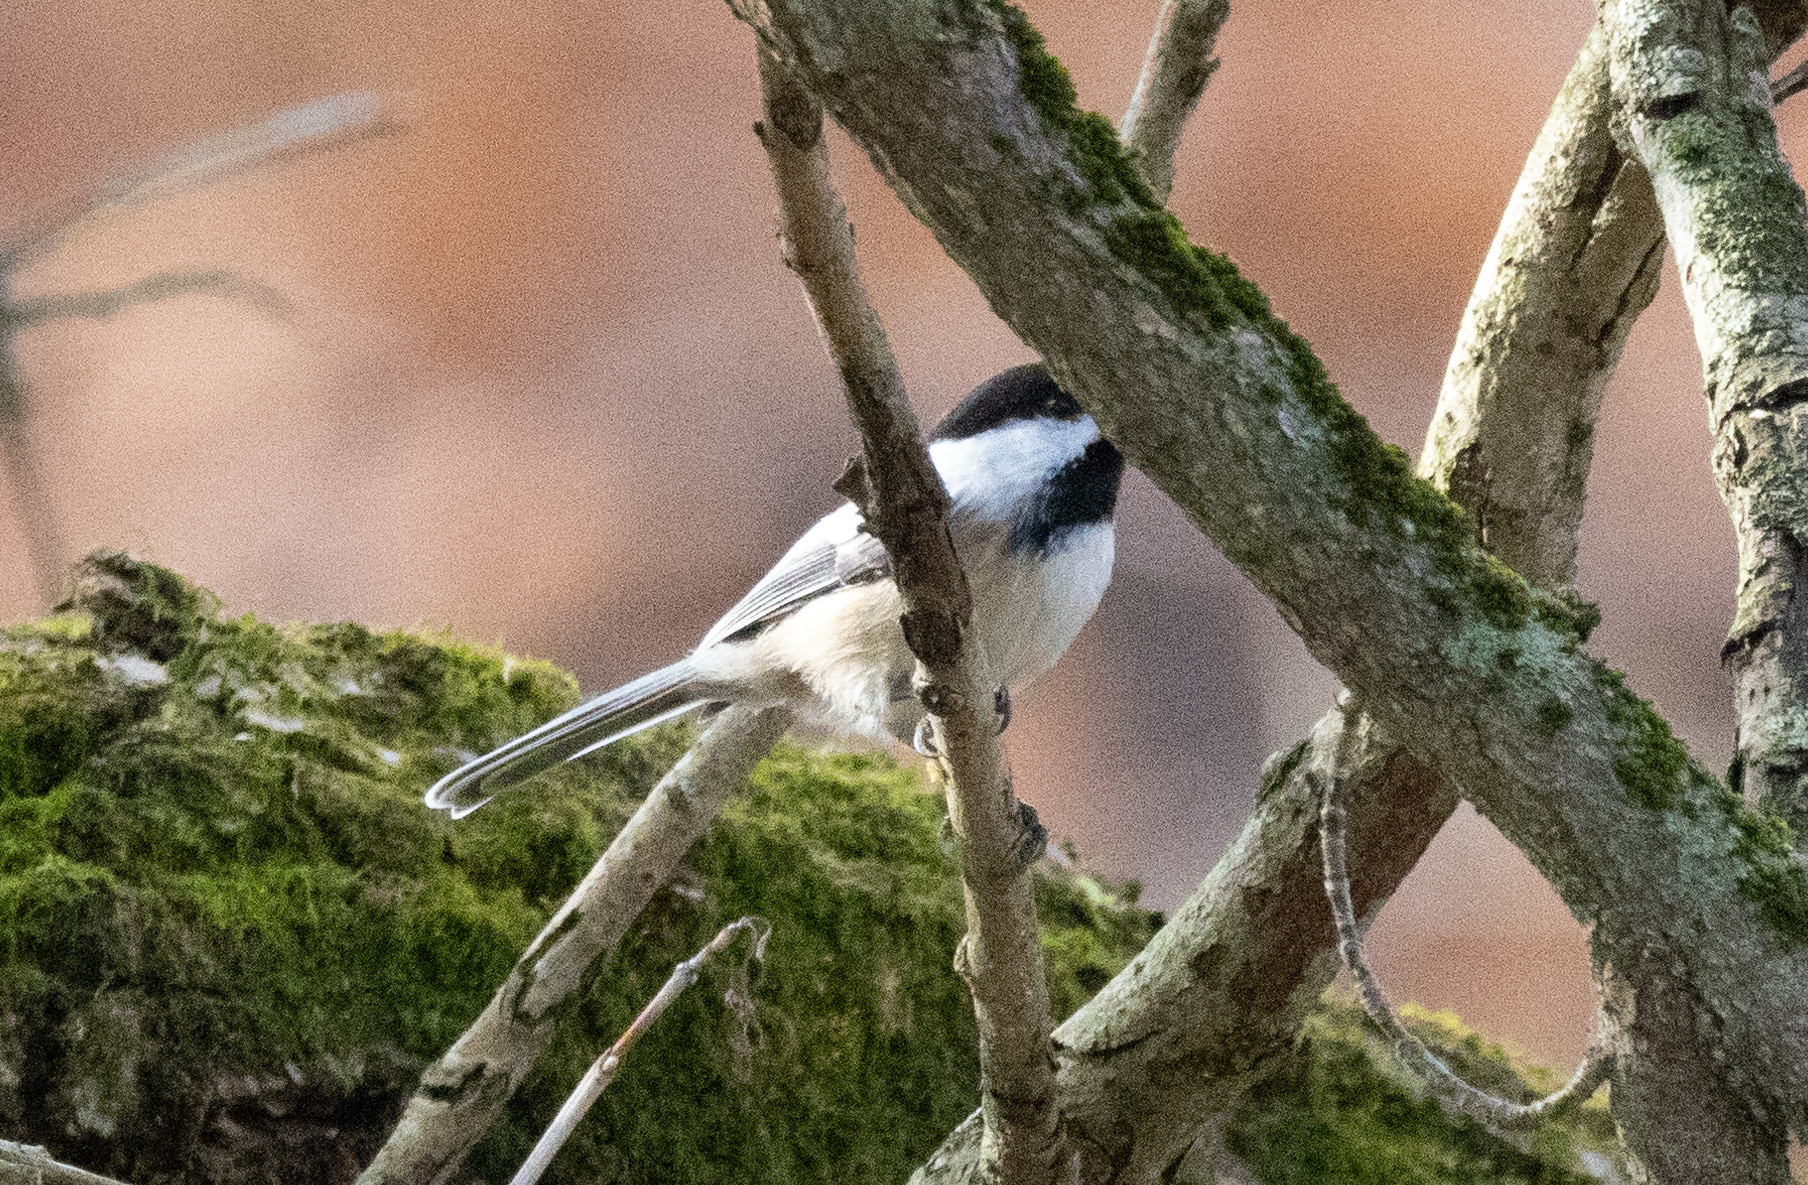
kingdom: Animalia
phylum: Chordata
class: Aves
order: Passeriformes
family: Paridae
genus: Poecile
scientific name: Poecile atricapillus
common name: Black-capped chickadee
